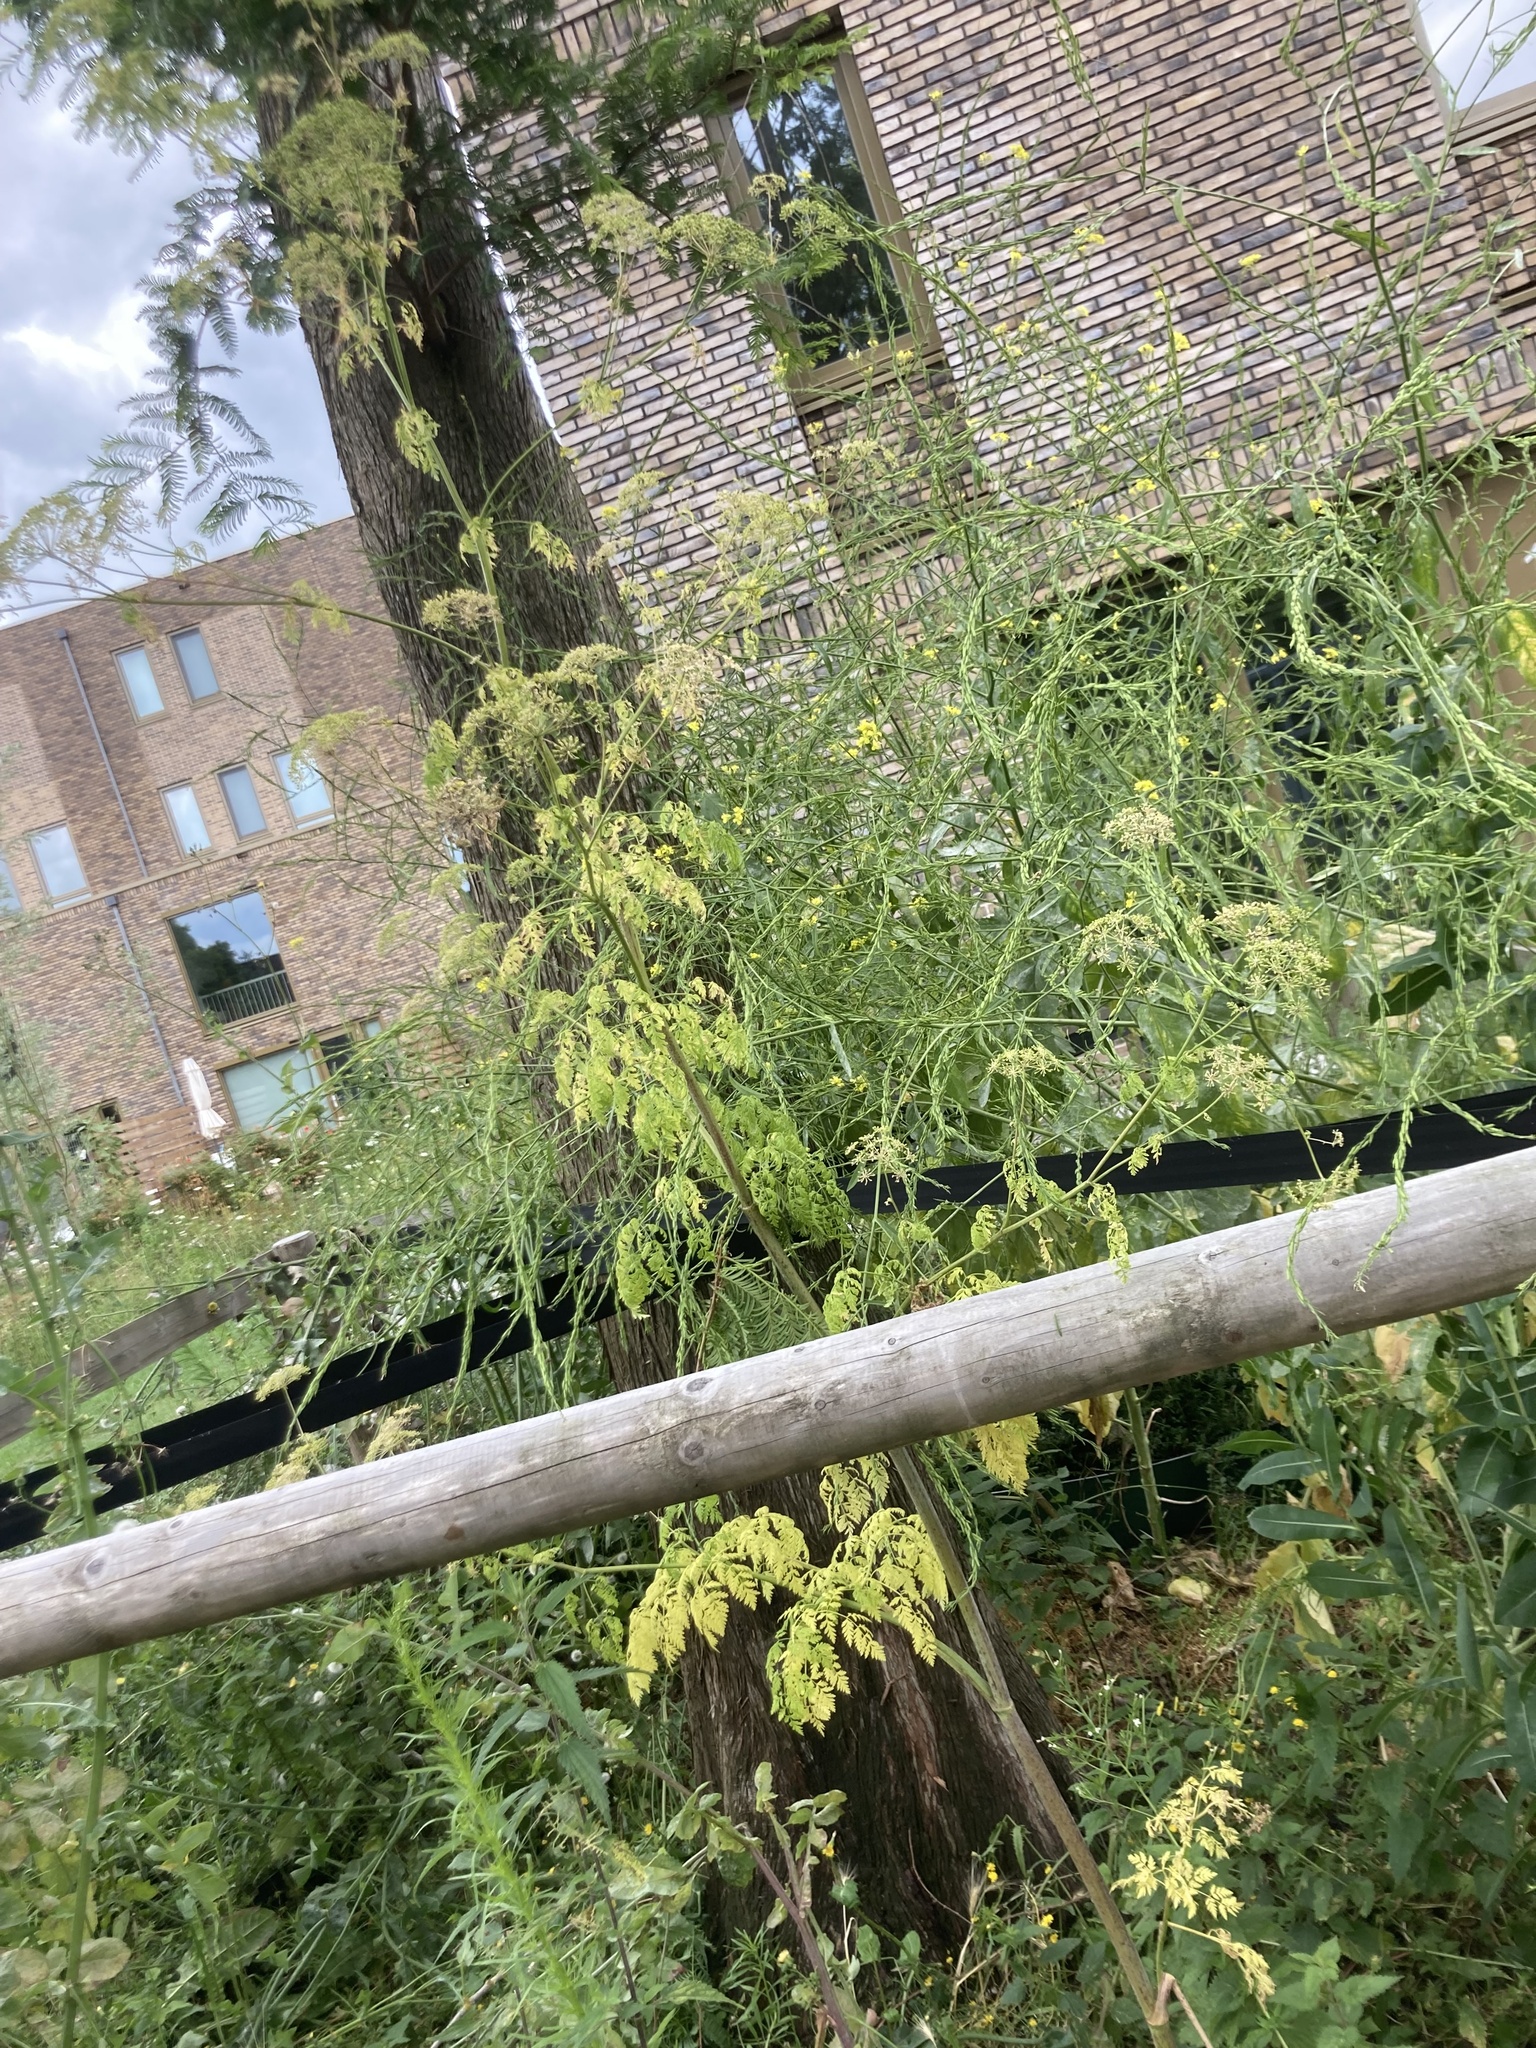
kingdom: Plantae
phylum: Tracheophyta
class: Magnoliopsida
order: Apiales
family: Apiaceae
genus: Conium
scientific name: Conium maculatum
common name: Hemlock
